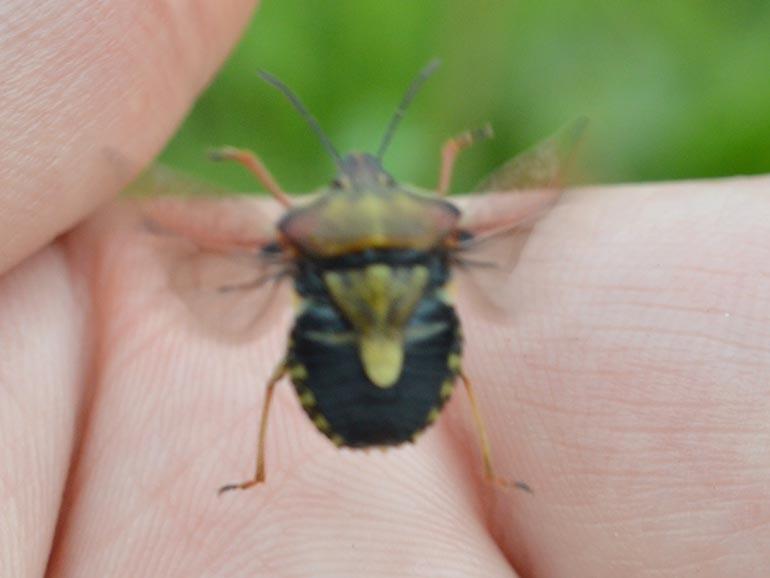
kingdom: Animalia
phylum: Arthropoda
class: Insecta
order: Hemiptera
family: Pentatomidae
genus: Carpocoris
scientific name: Carpocoris purpureipennis
